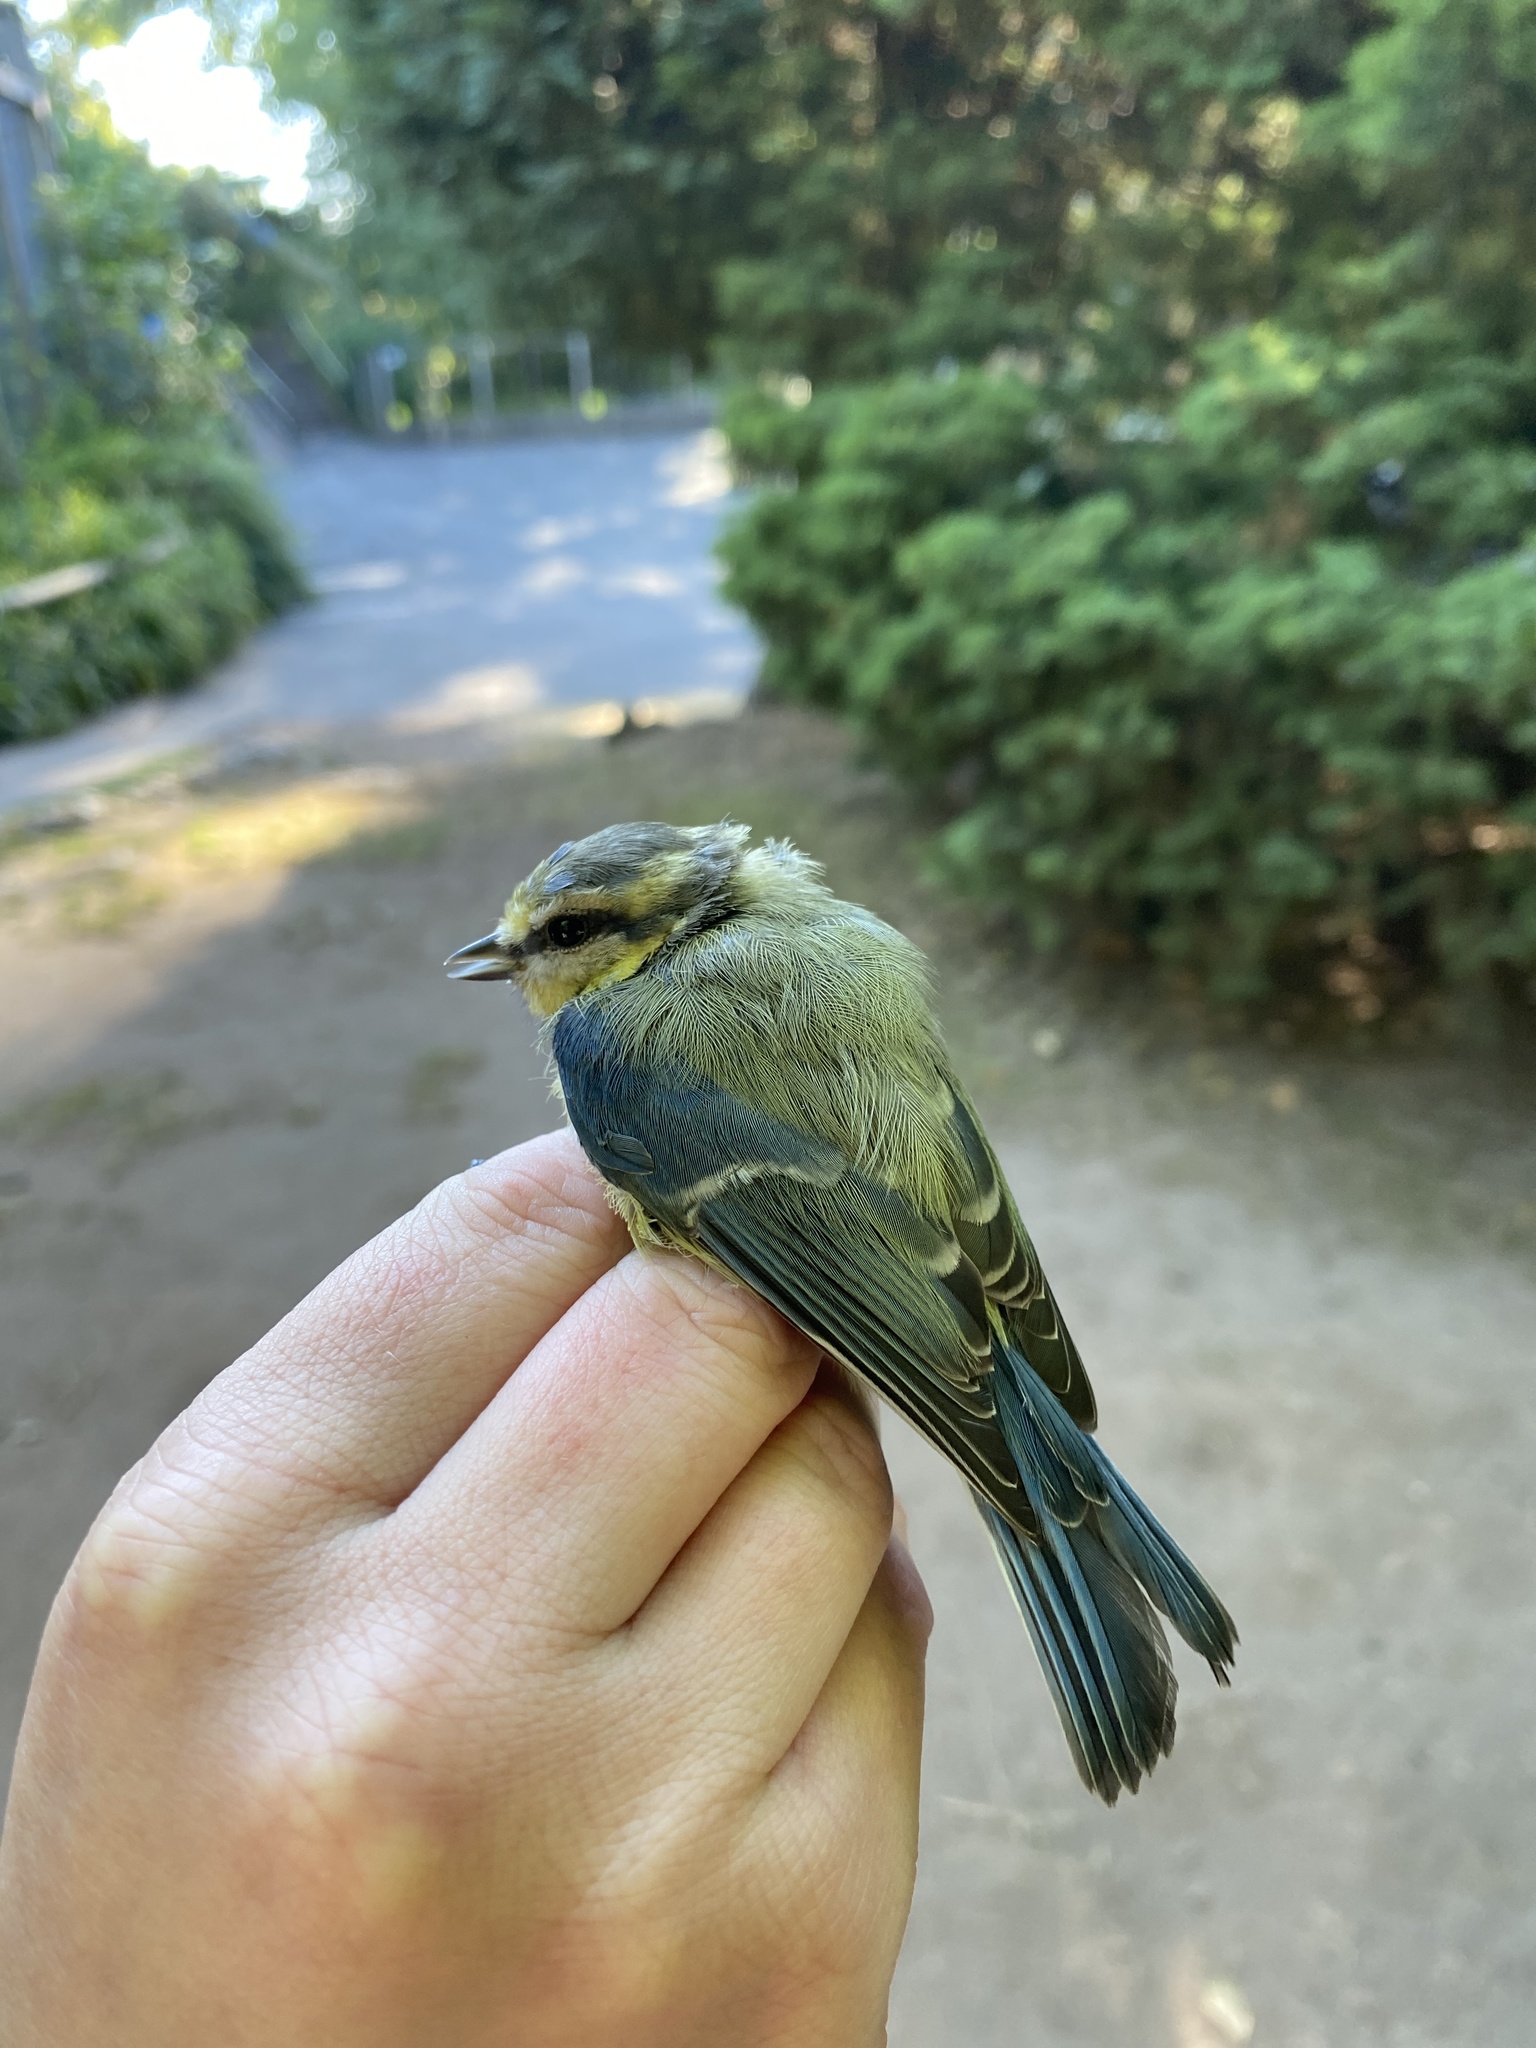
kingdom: Animalia
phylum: Chordata
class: Aves
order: Passeriformes
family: Paridae
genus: Cyanistes
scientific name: Cyanistes caeruleus
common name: Eurasian blue tit
